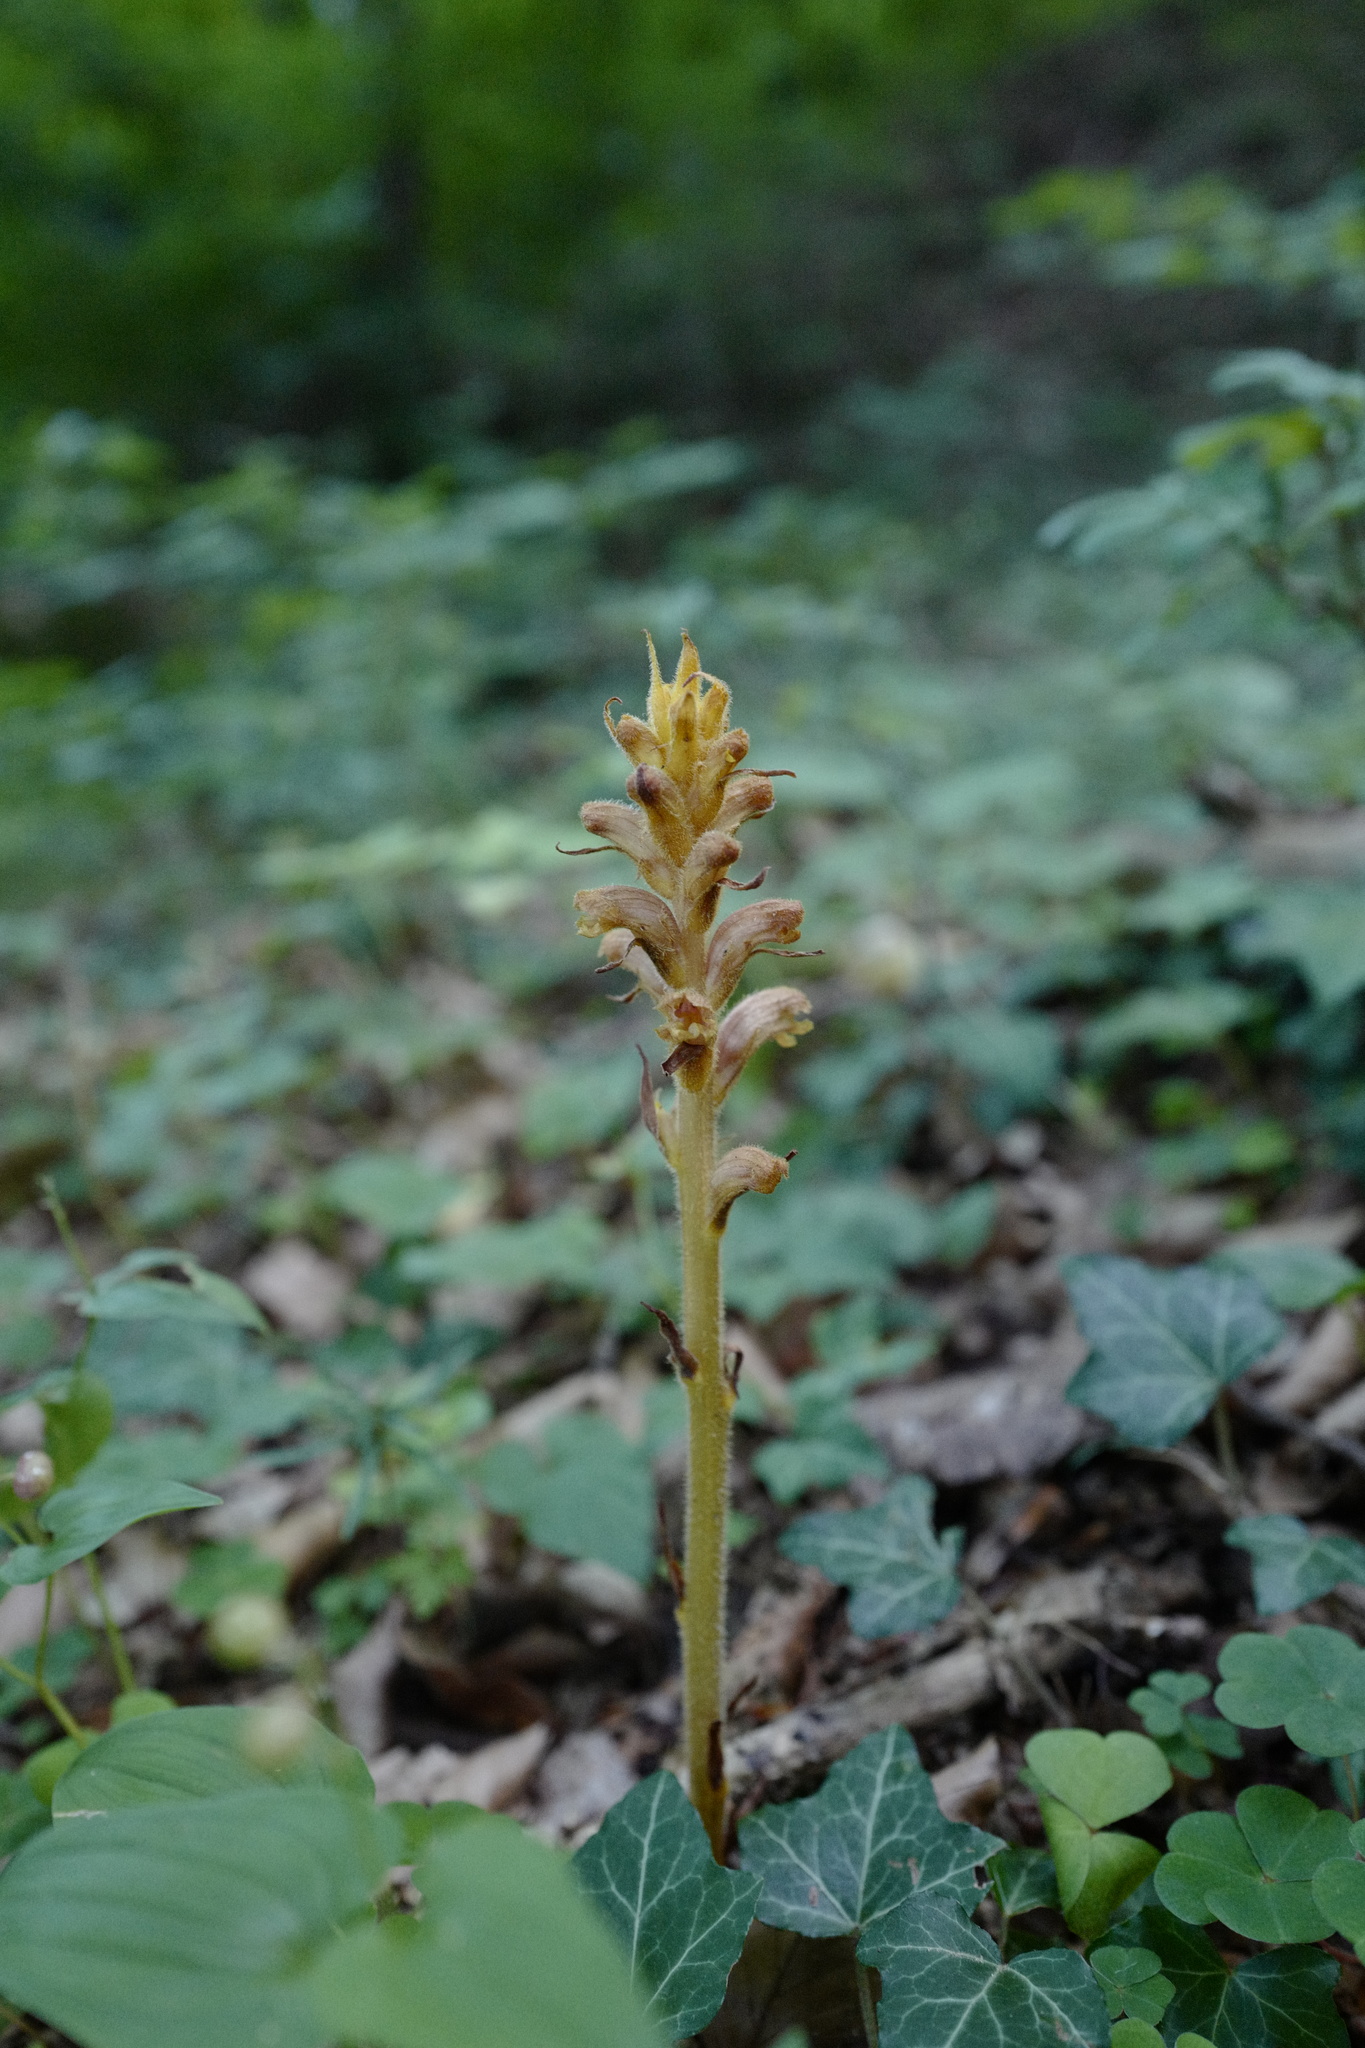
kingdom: Plantae
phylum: Tracheophyta
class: Magnoliopsida
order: Lamiales
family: Orobanchaceae
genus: Orobanche
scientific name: Orobanche salviae
